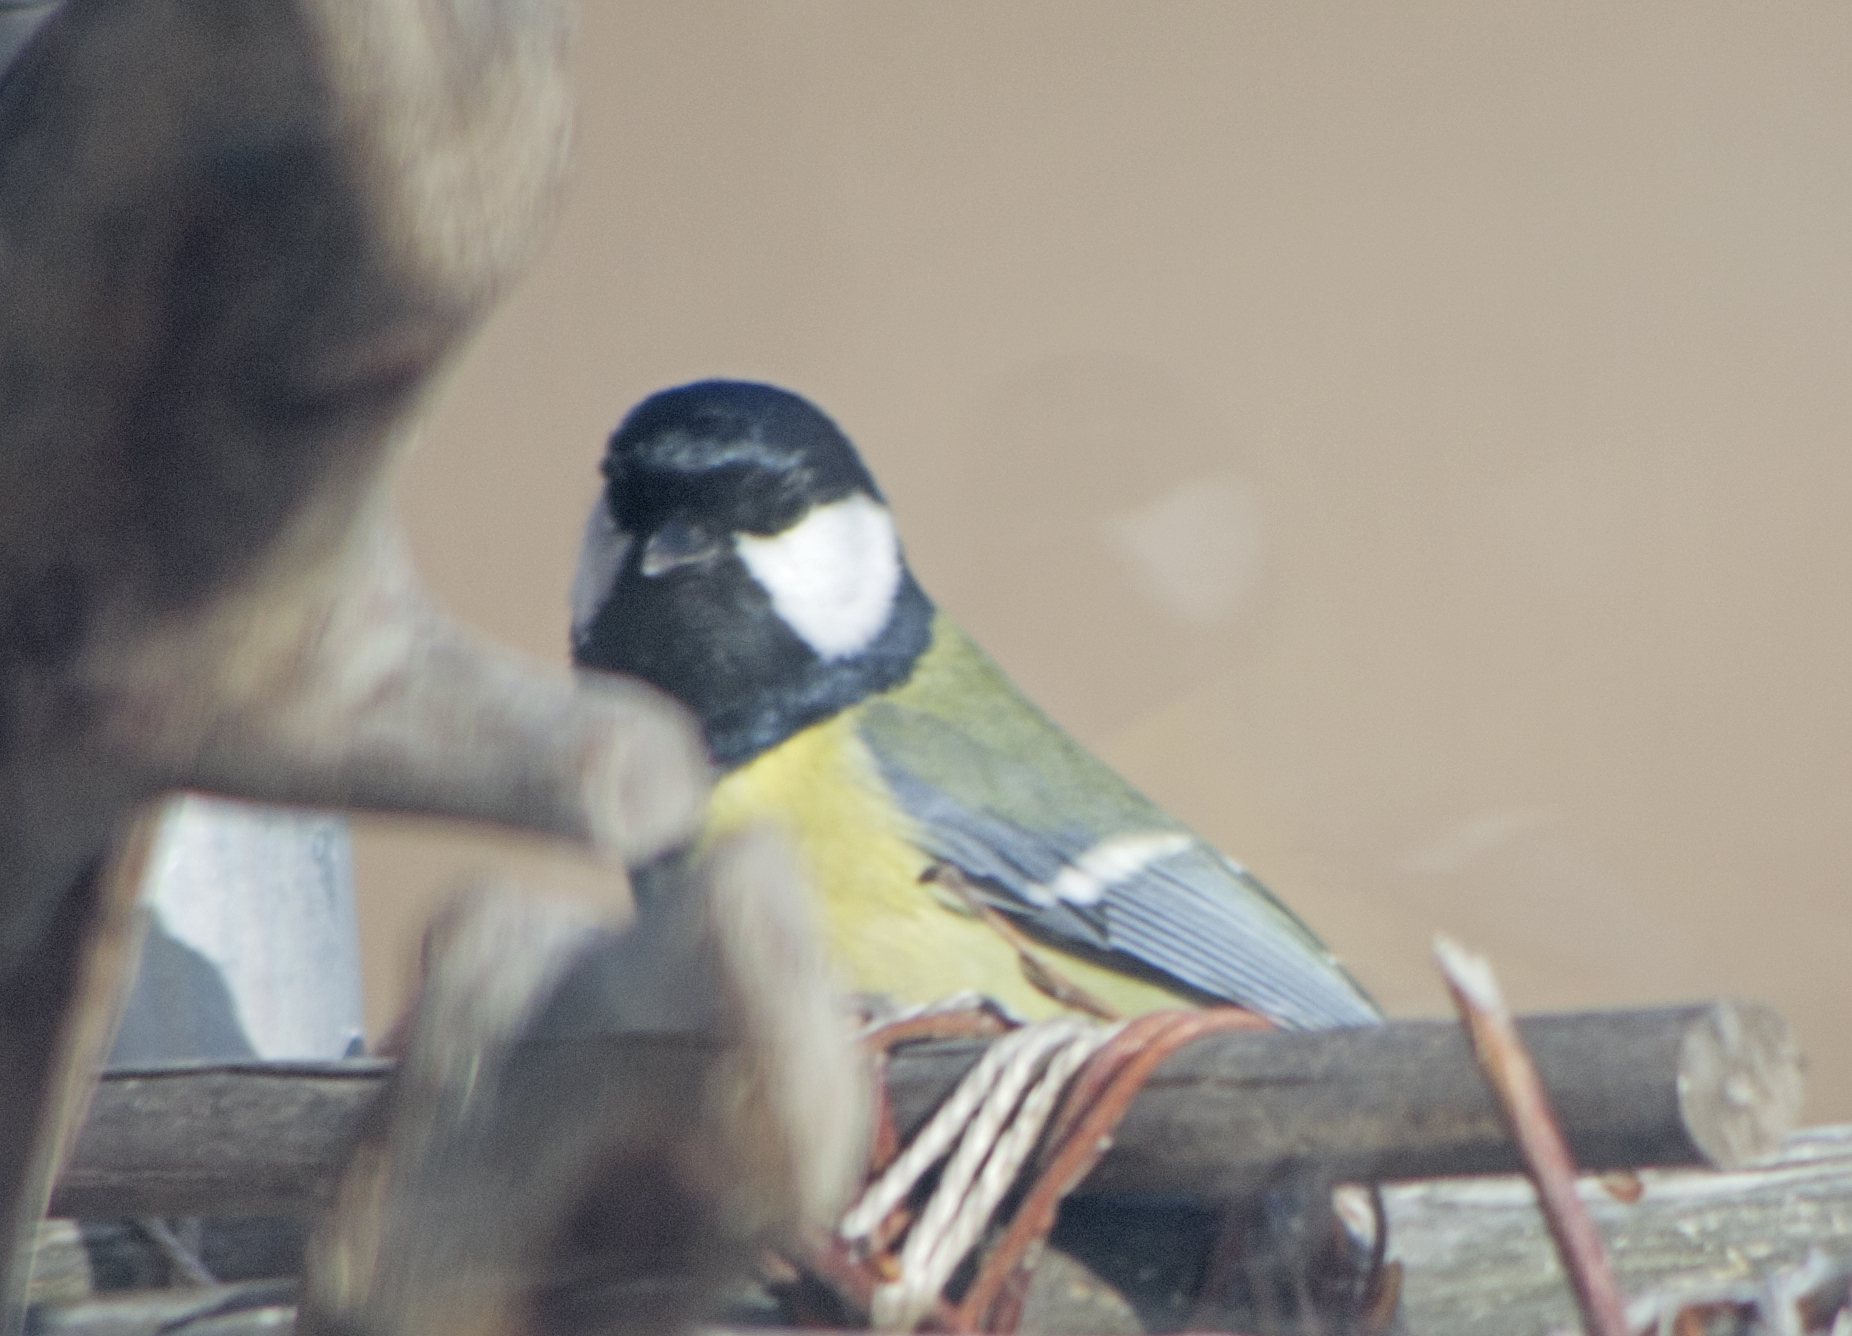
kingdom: Animalia
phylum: Chordata
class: Aves
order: Passeriformes
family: Paridae
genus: Parus
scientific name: Parus major
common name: Great tit
